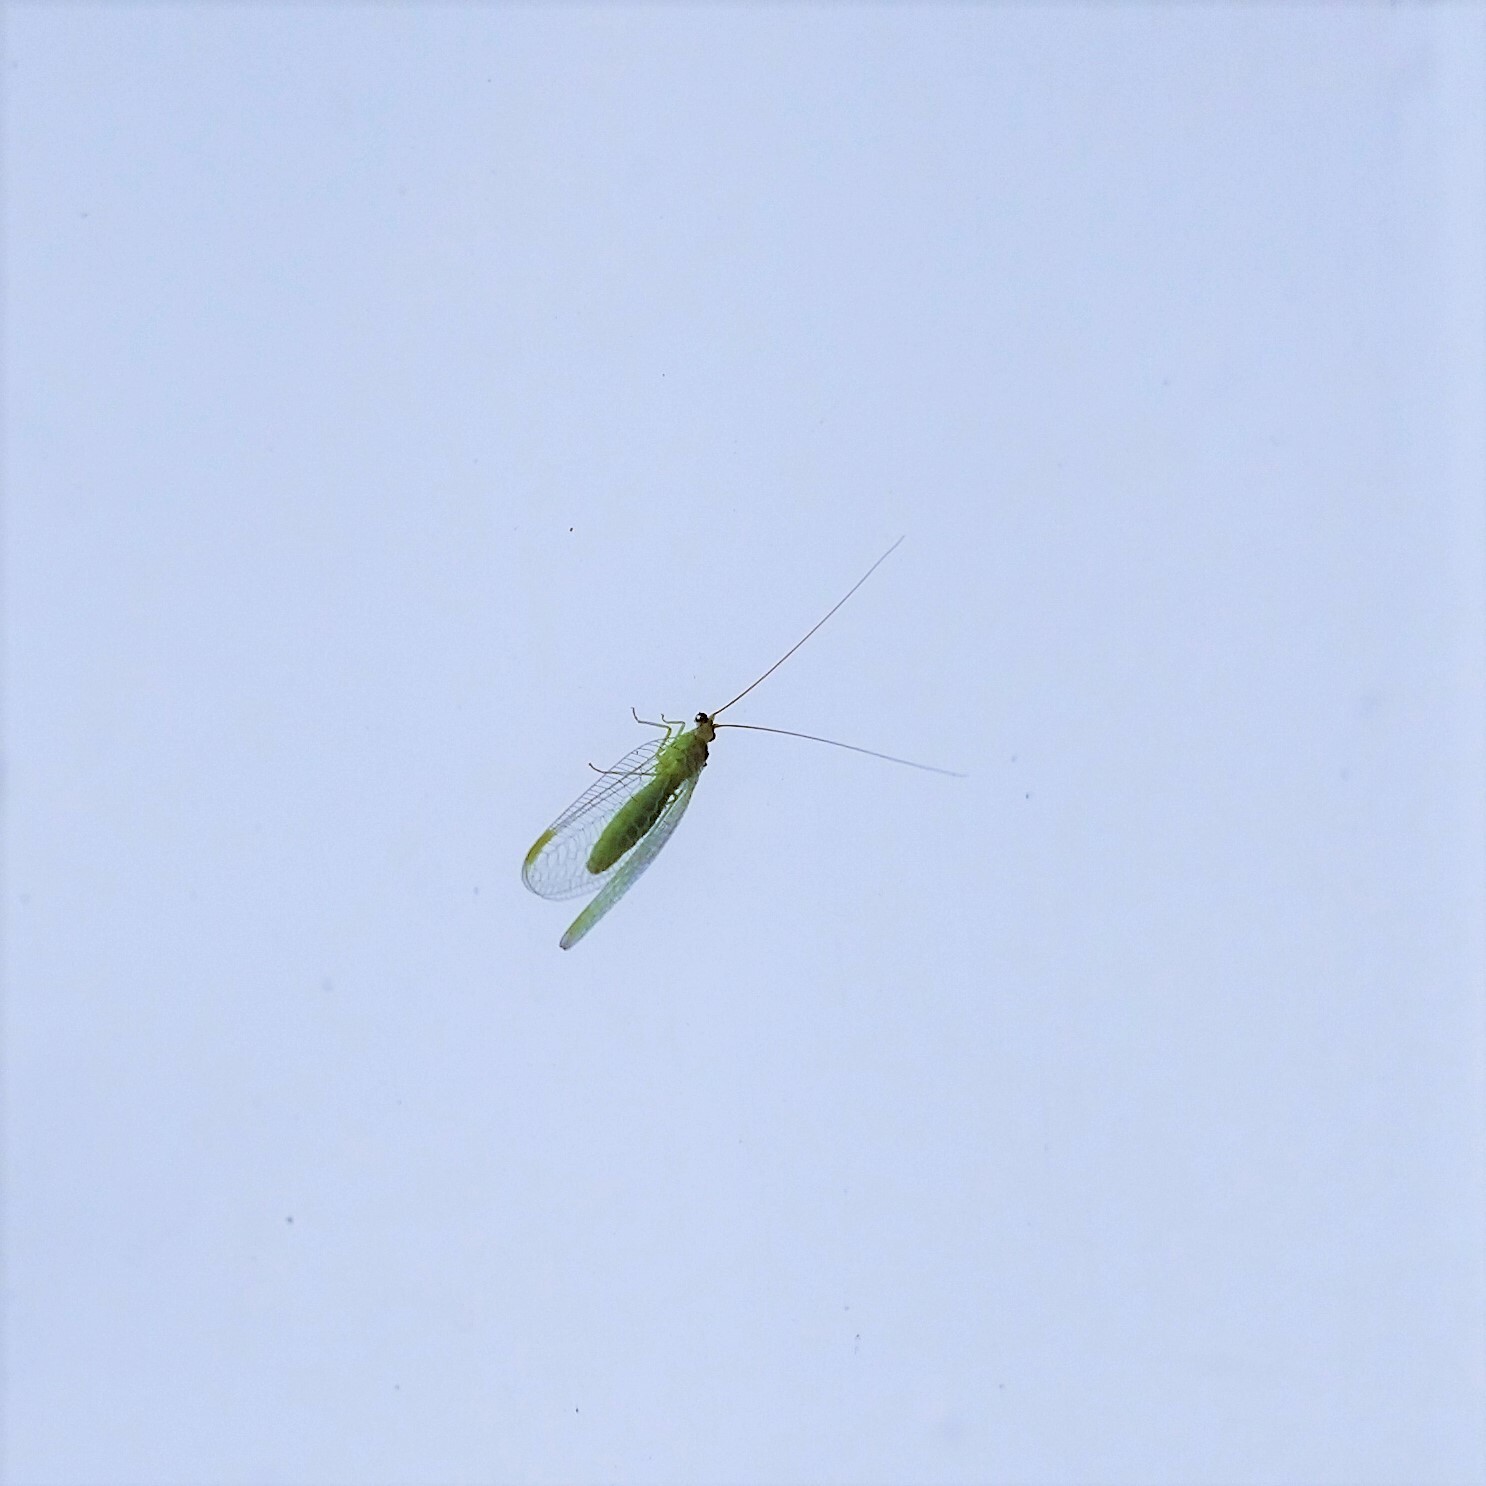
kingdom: Animalia
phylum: Arthropoda
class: Insecta
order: Neuroptera
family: Chrysopidae
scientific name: Chrysopidae
